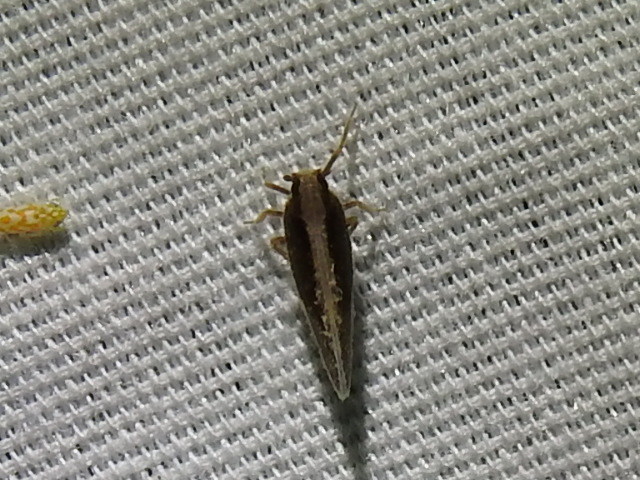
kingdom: Animalia
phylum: Arthropoda
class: Insecta
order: Hemiptera
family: Cixiidae
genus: Pintalia
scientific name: Pintalia delicata
